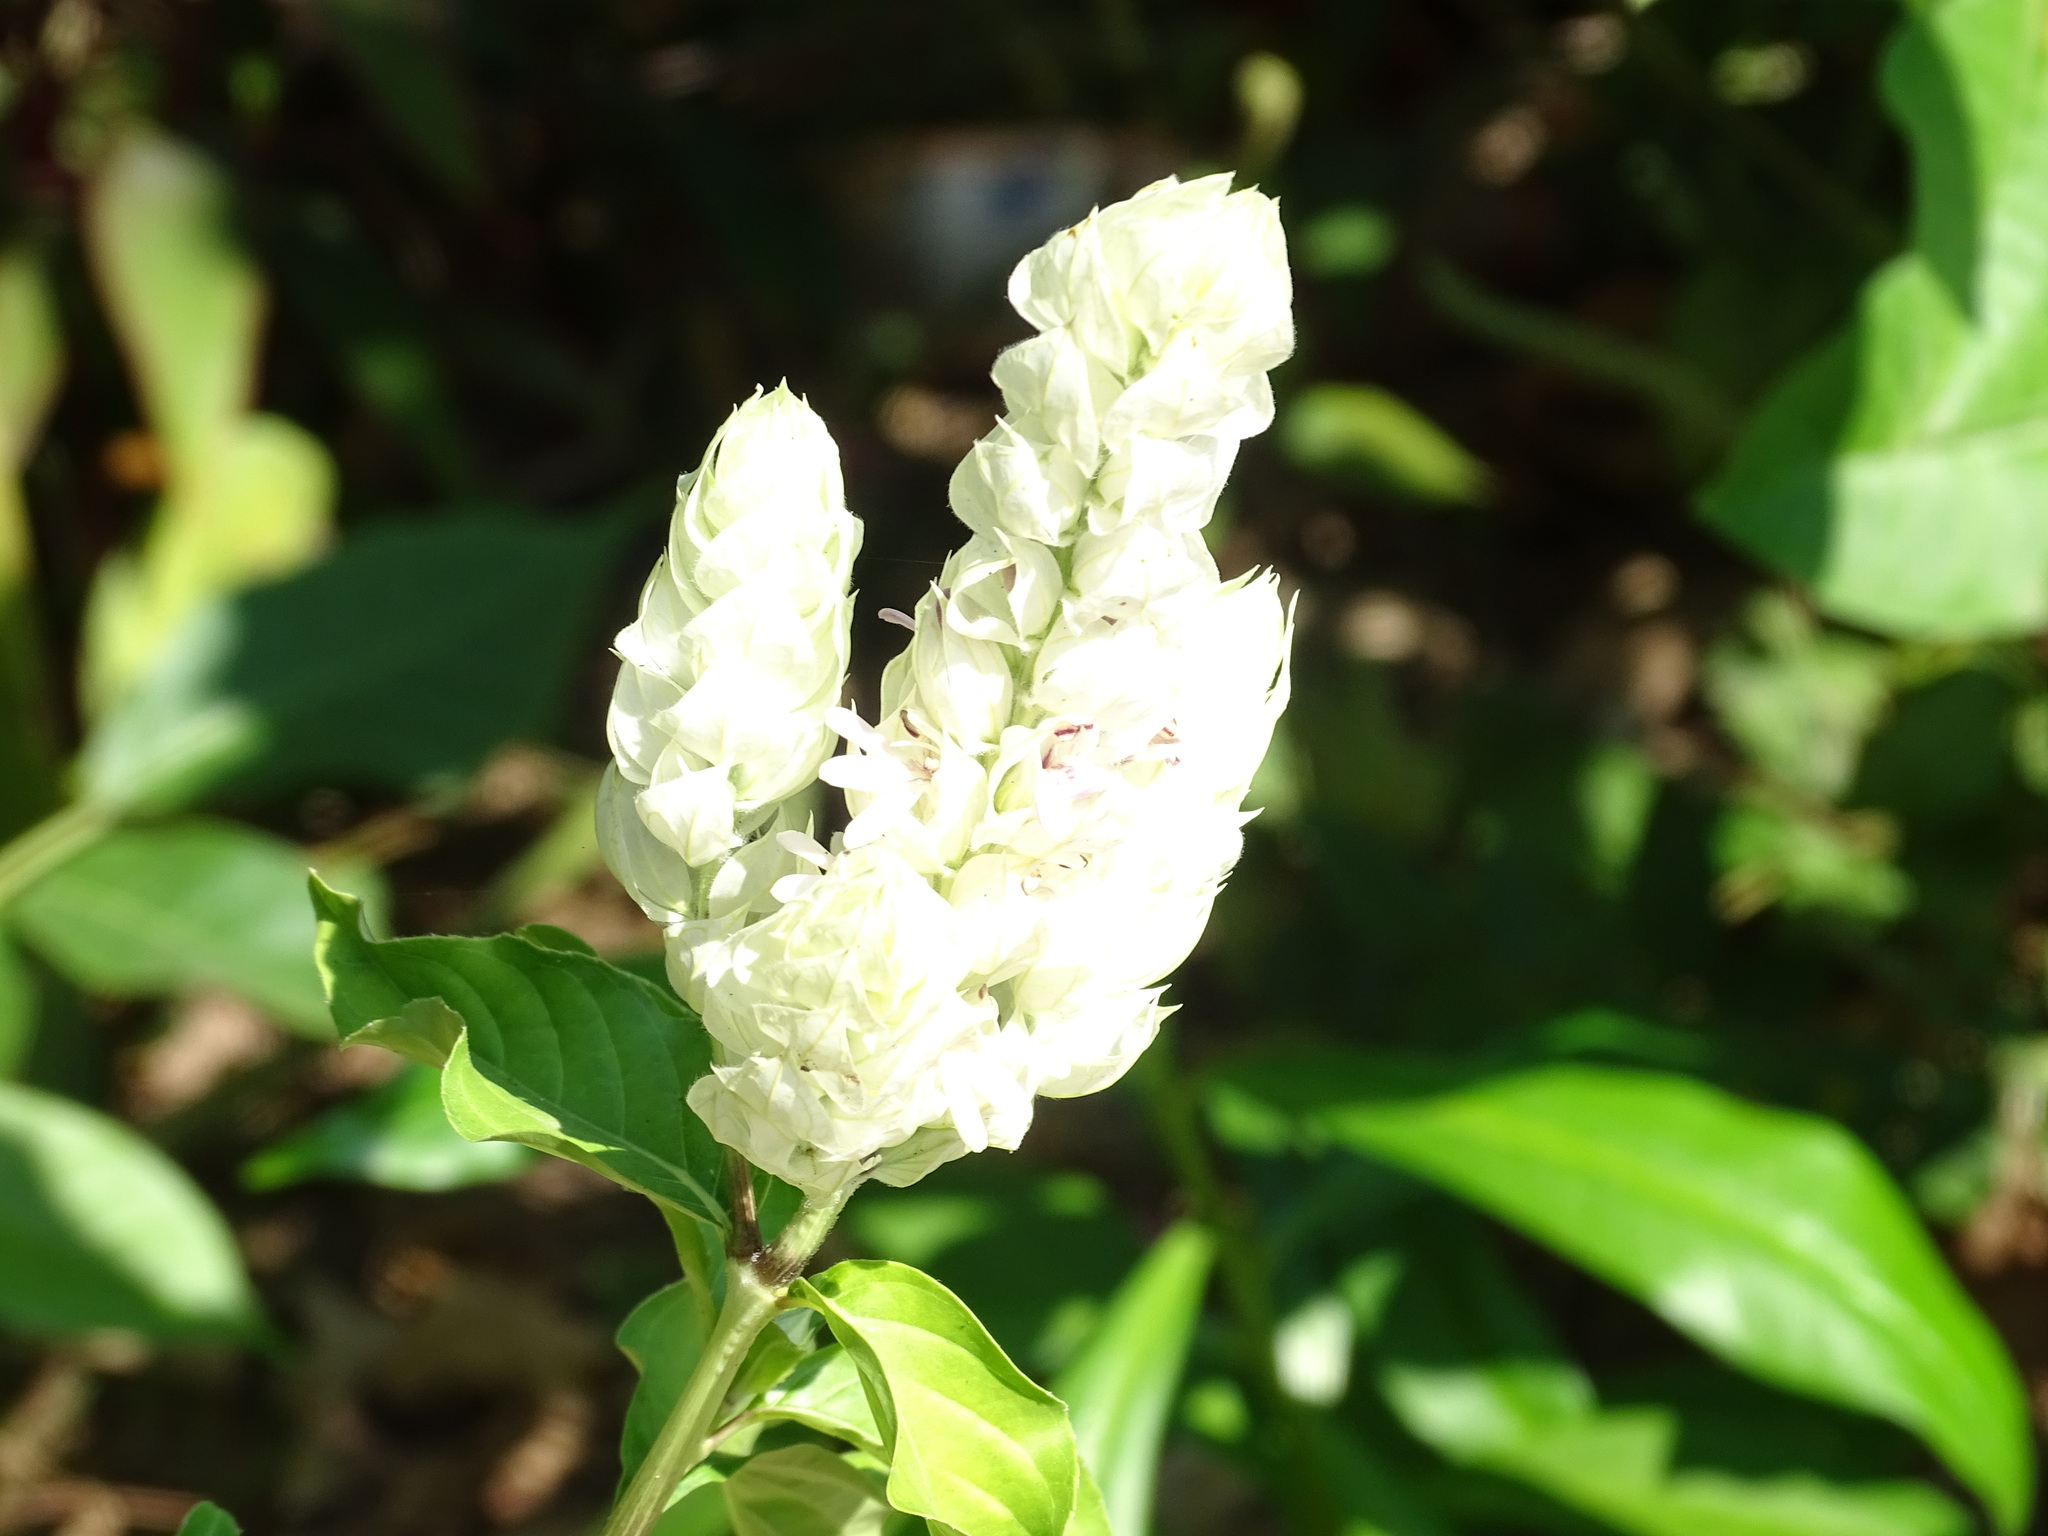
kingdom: Plantae
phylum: Tracheophyta
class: Magnoliopsida
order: Lamiales
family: Acanthaceae
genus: Justicia
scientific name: Justicia betonica
